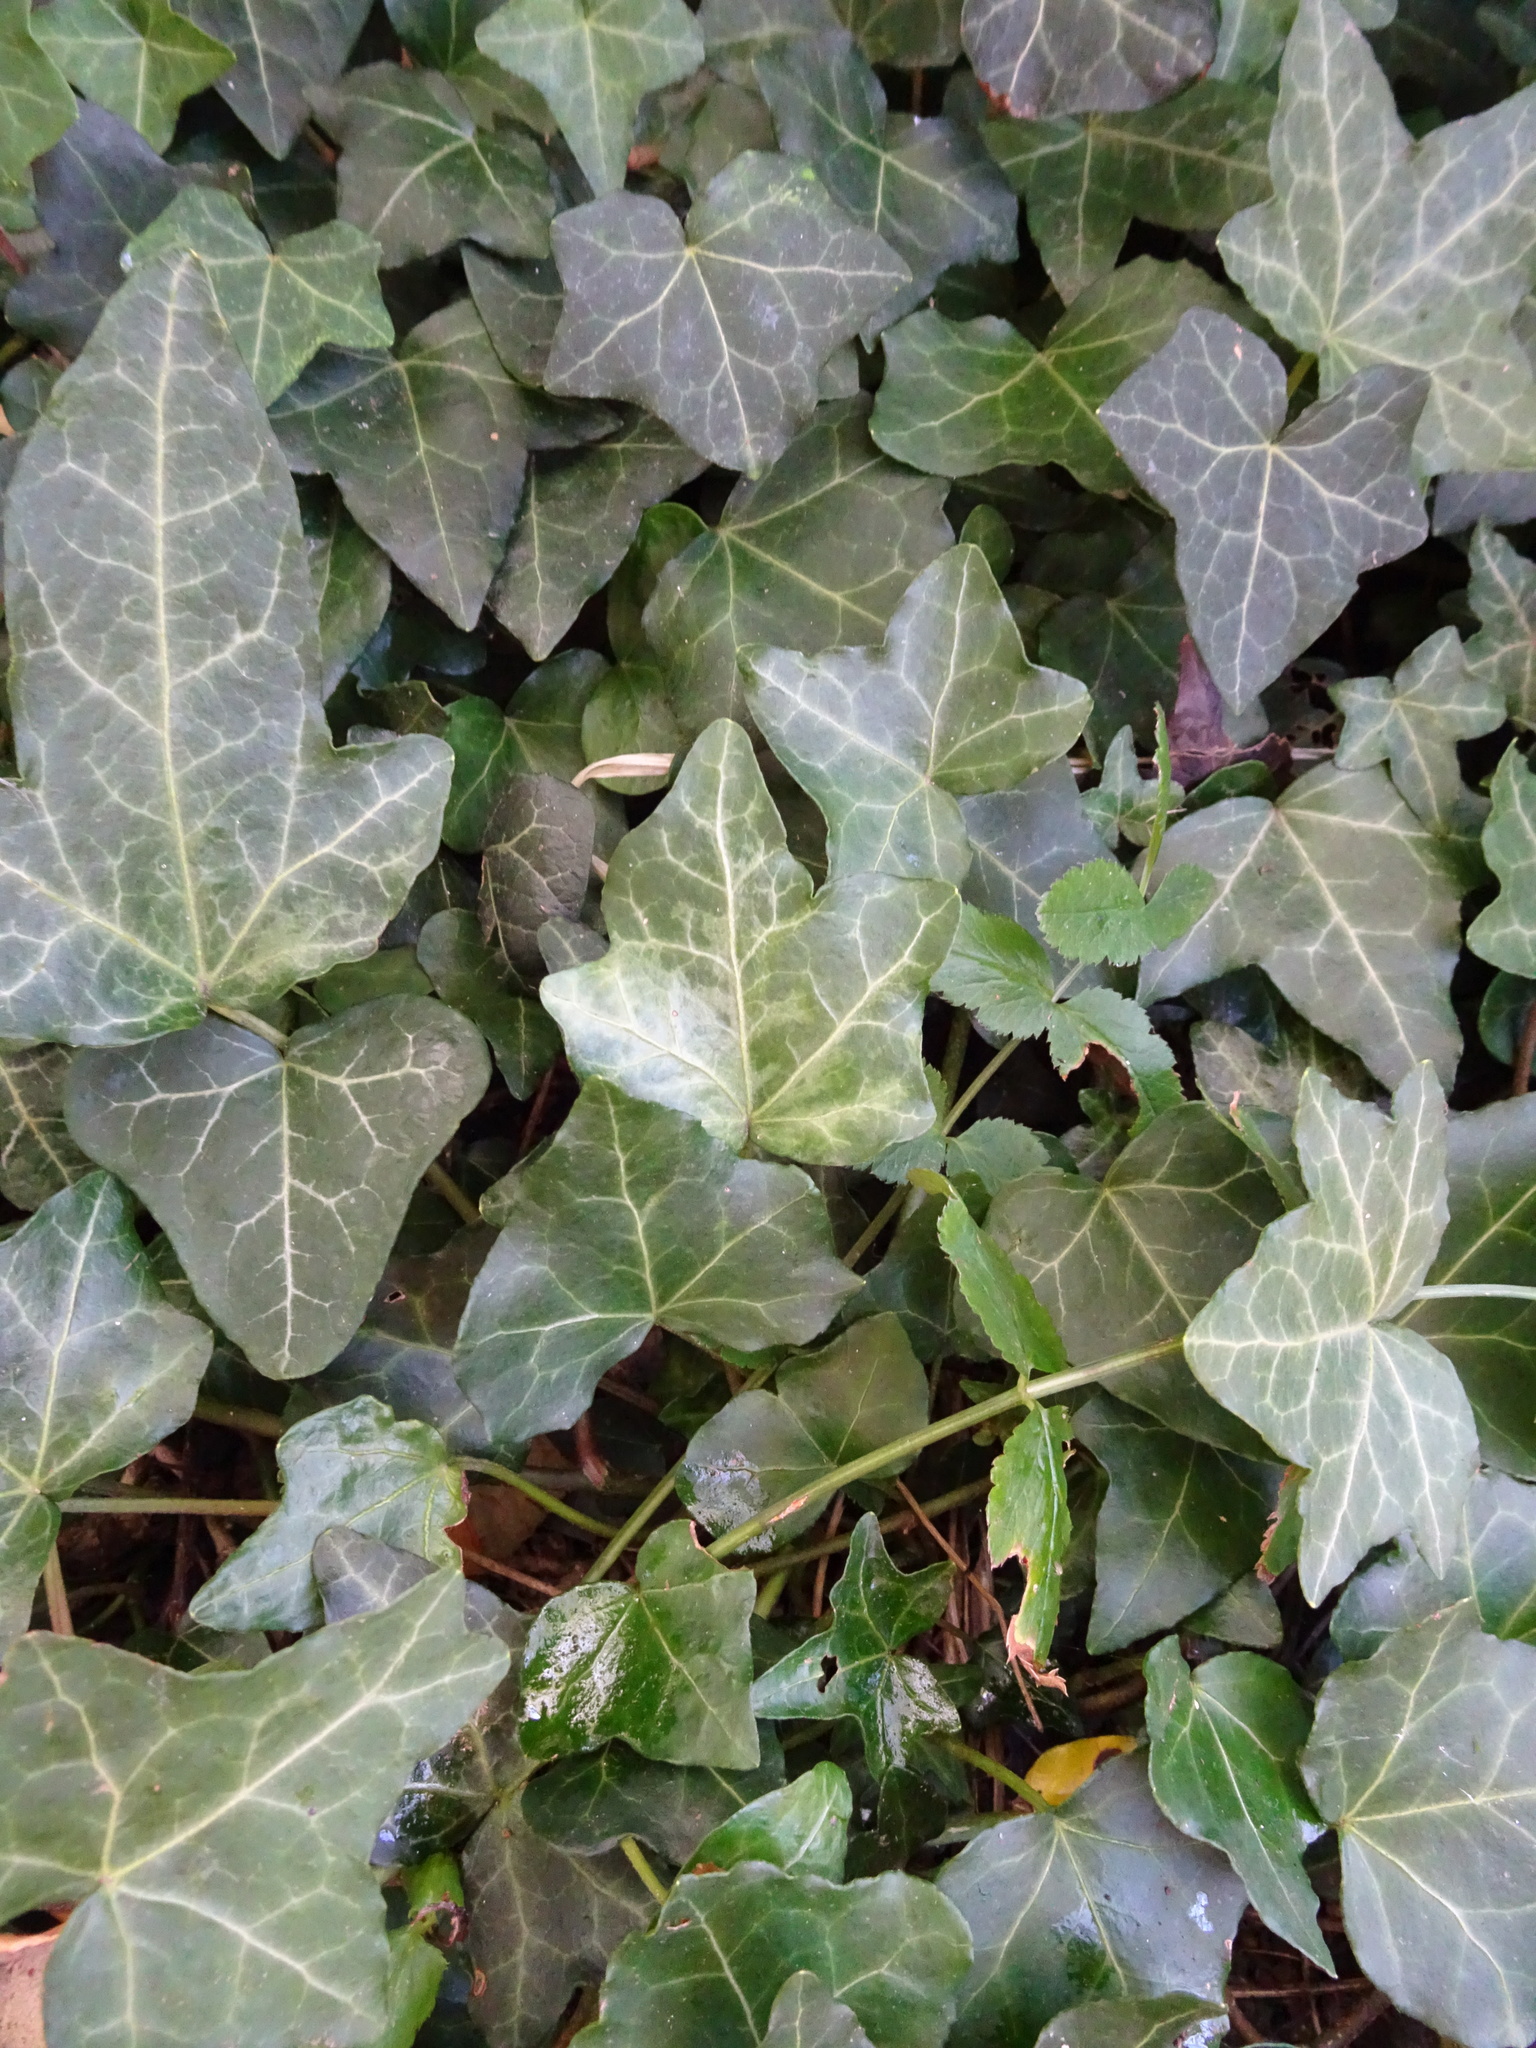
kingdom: Plantae
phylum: Tracheophyta
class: Magnoliopsida
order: Apiales
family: Araliaceae
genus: Hedera
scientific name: Hedera helix
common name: Ivy
